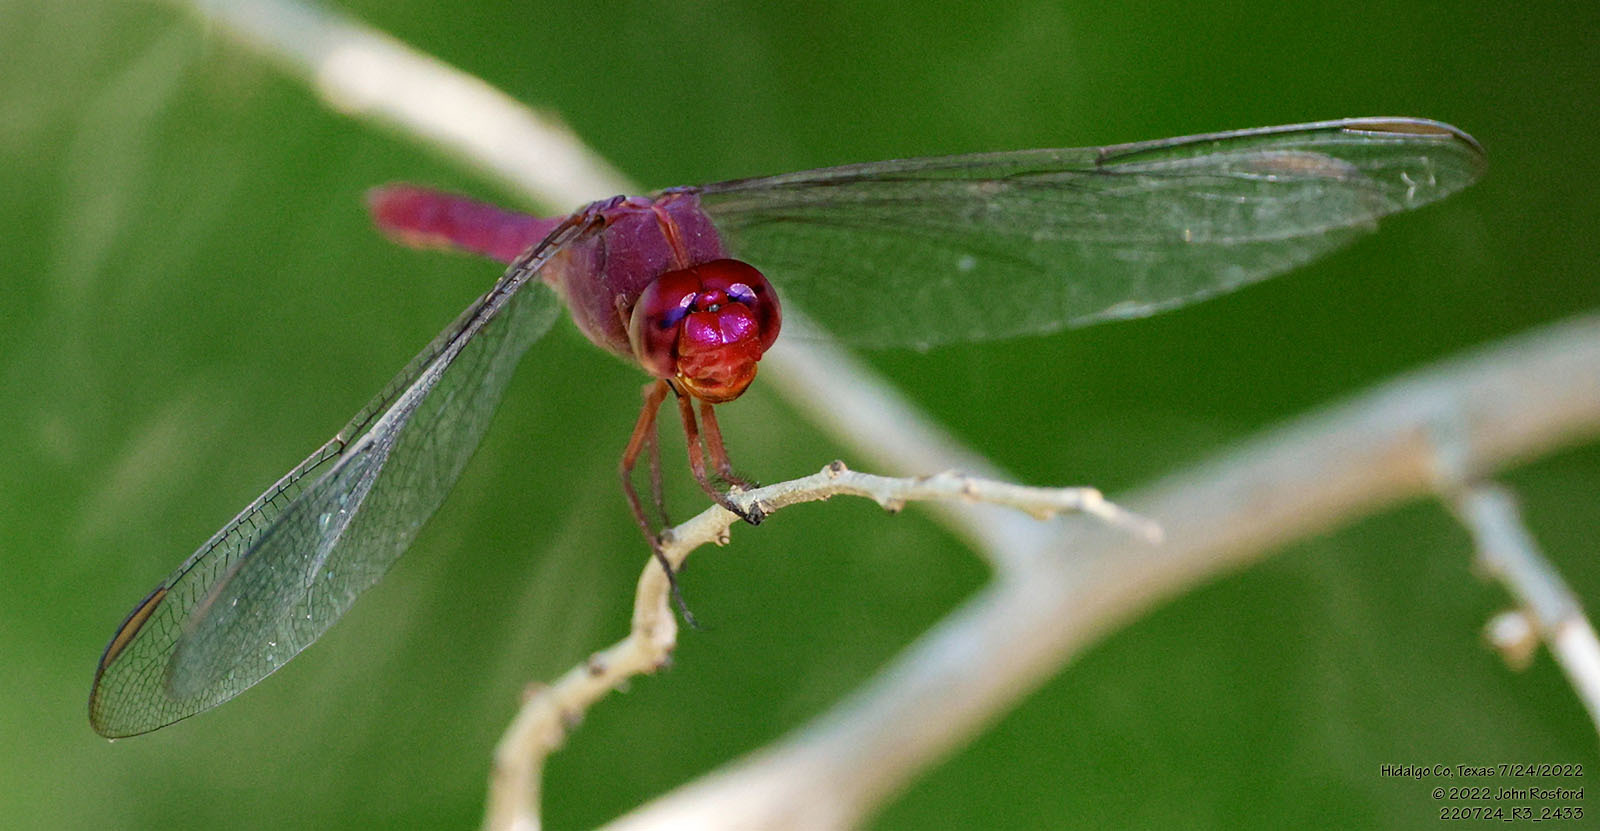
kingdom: Animalia
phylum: Arthropoda
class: Insecta
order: Odonata
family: Libellulidae
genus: Orthemis
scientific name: Orthemis discolor
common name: Carmine skimmer
